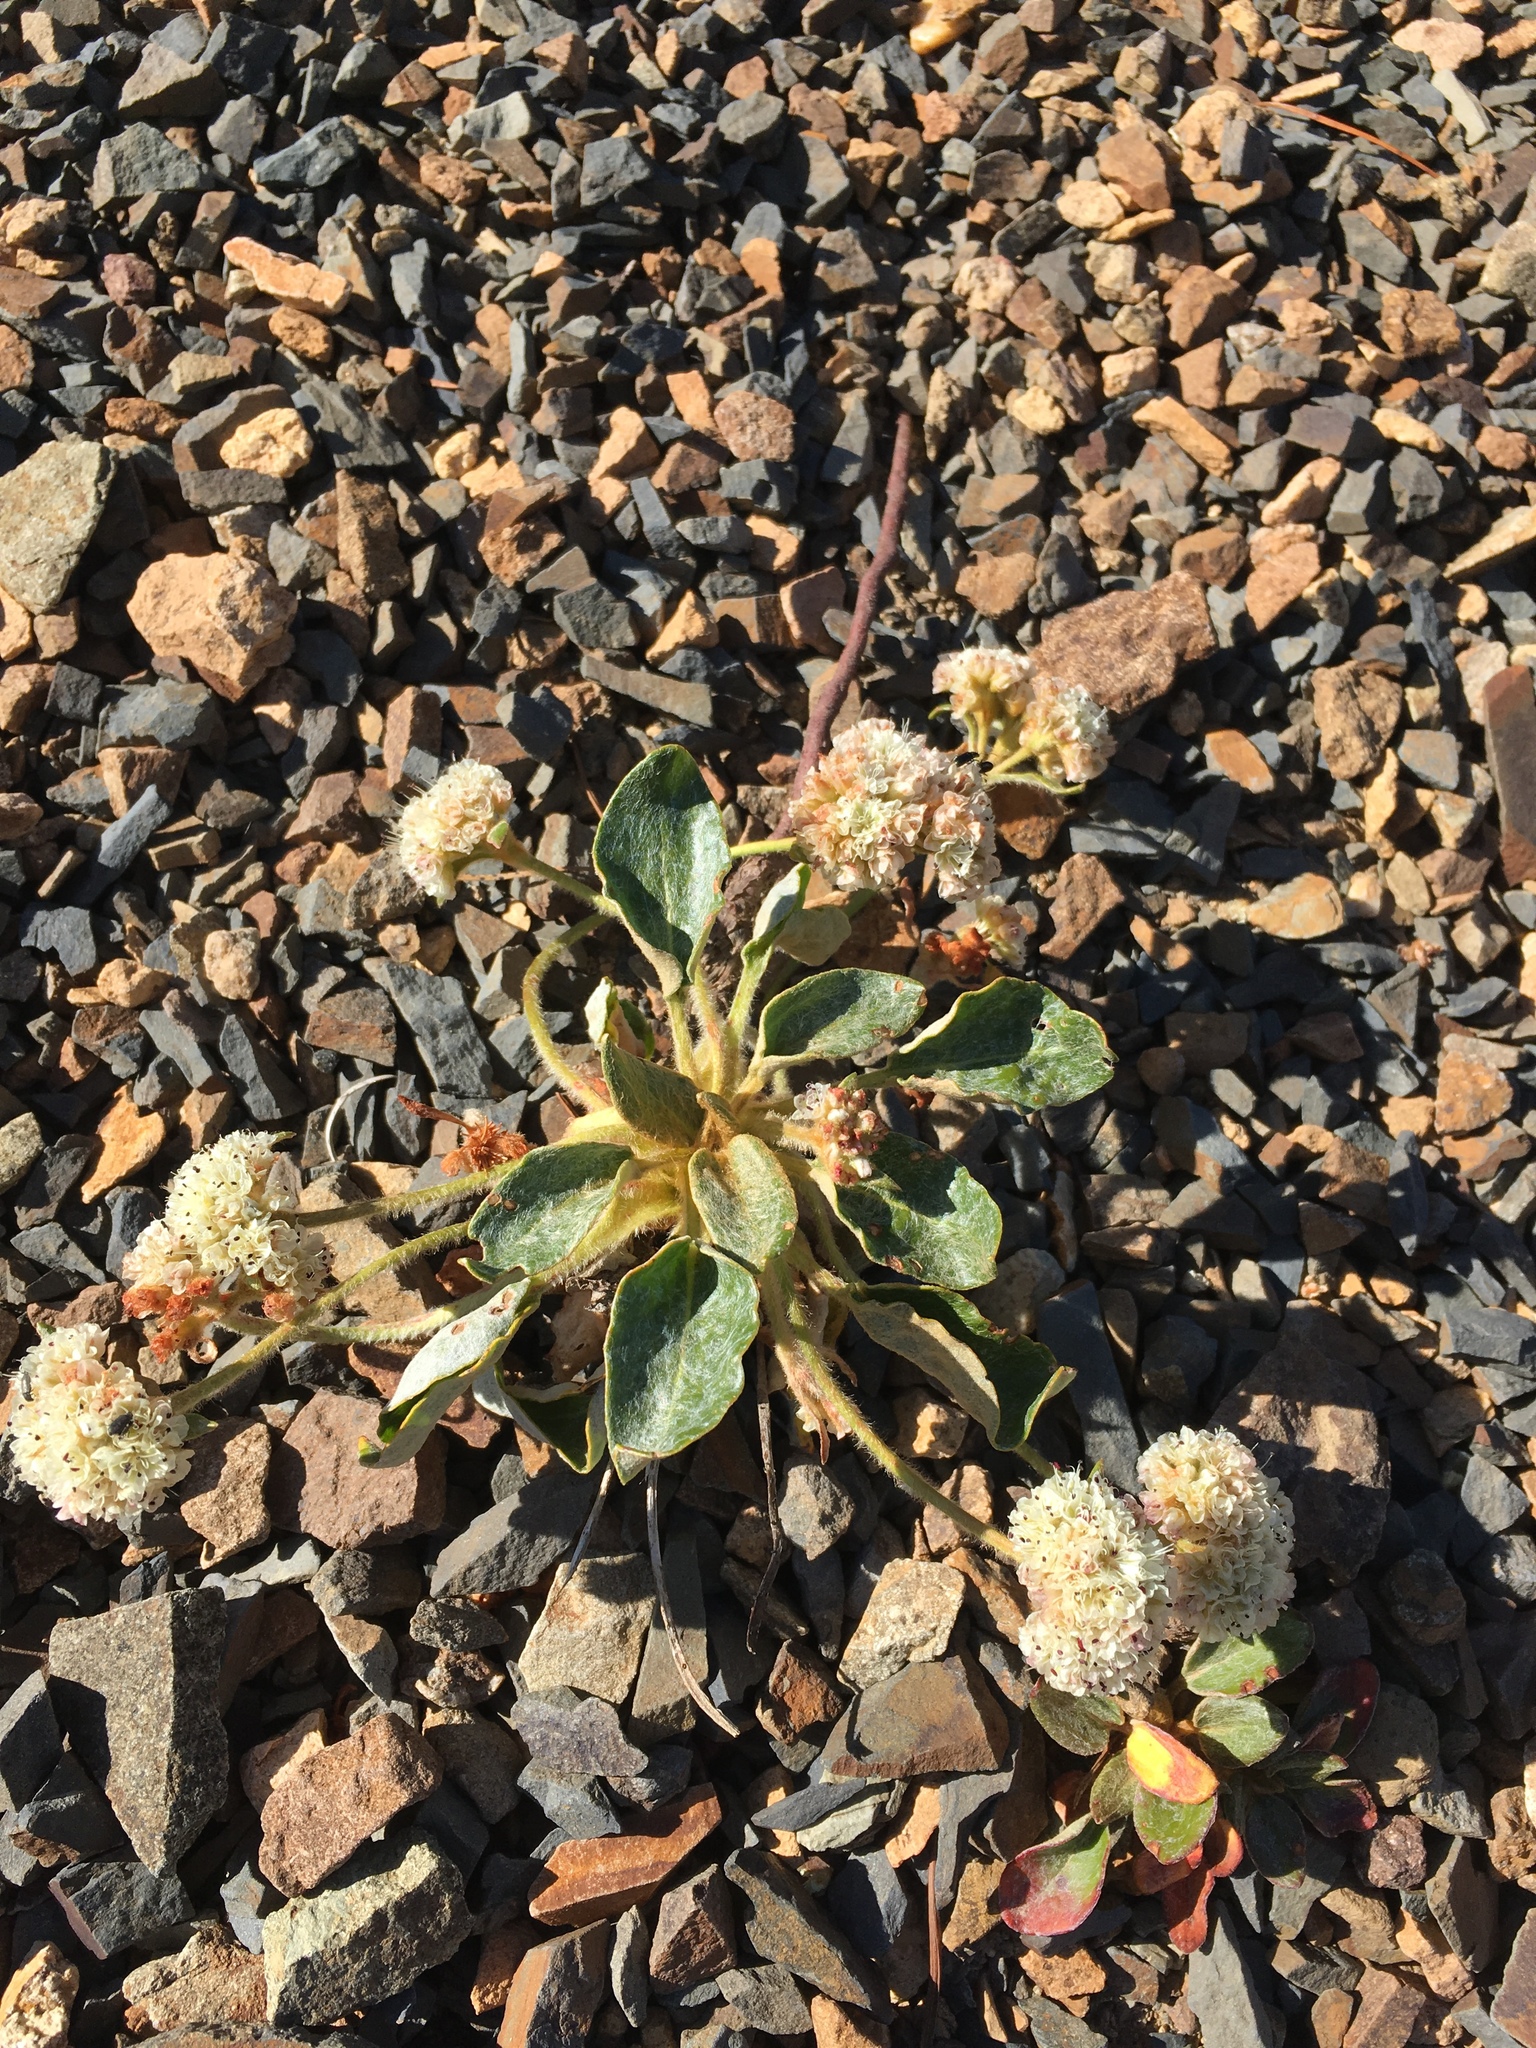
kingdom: Plantae
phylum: Tracheophyta
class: Magnoliopsida
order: Caryophyllales
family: Polygonaceae
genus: Eriogonum
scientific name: Eriogonum pyrolifolium
